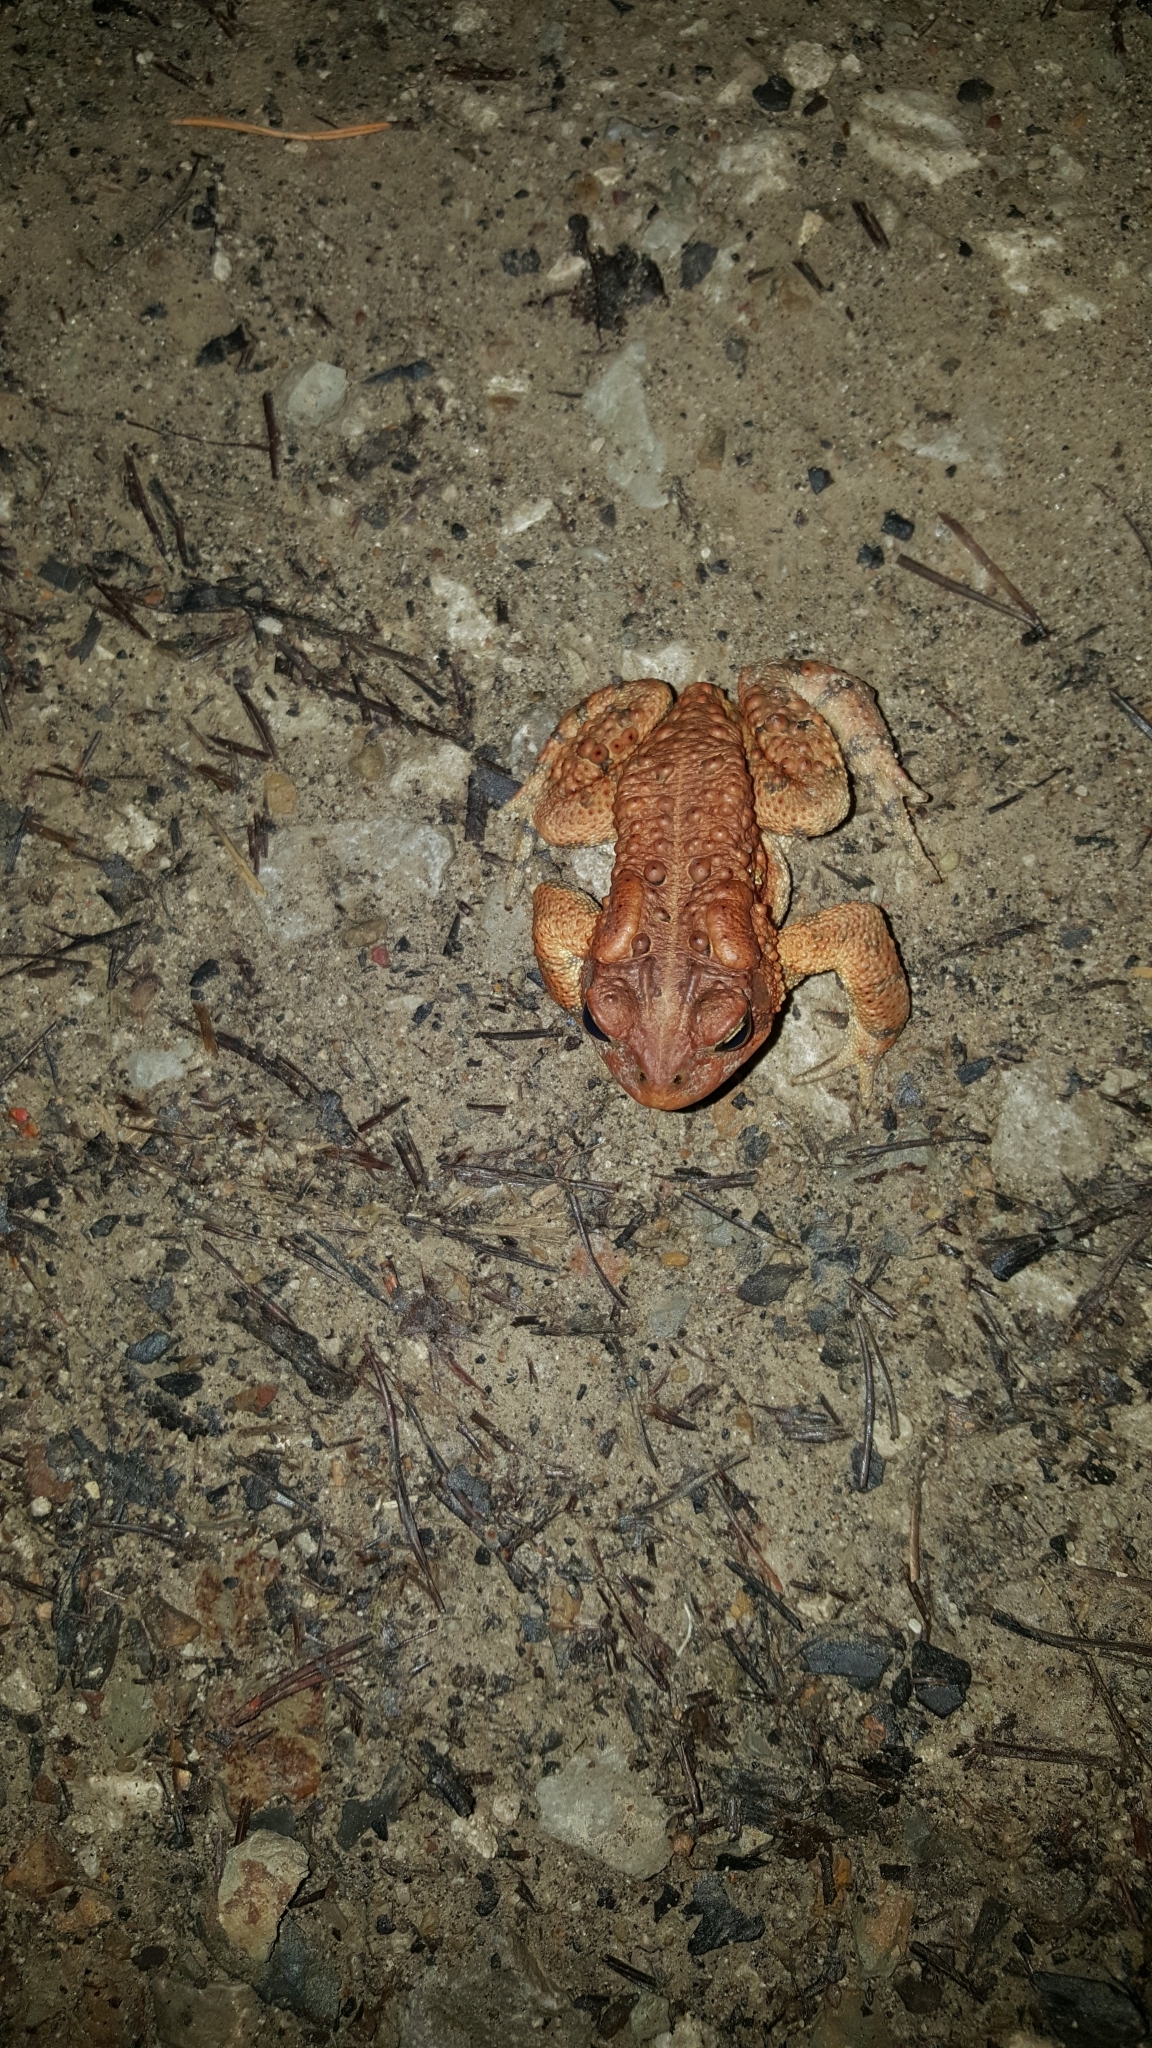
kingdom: Animalia
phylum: Chordata
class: Amphibia
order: Anura
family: Bufonidae
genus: Anaxyrus
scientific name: Anaxyrus americanus
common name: American toad
